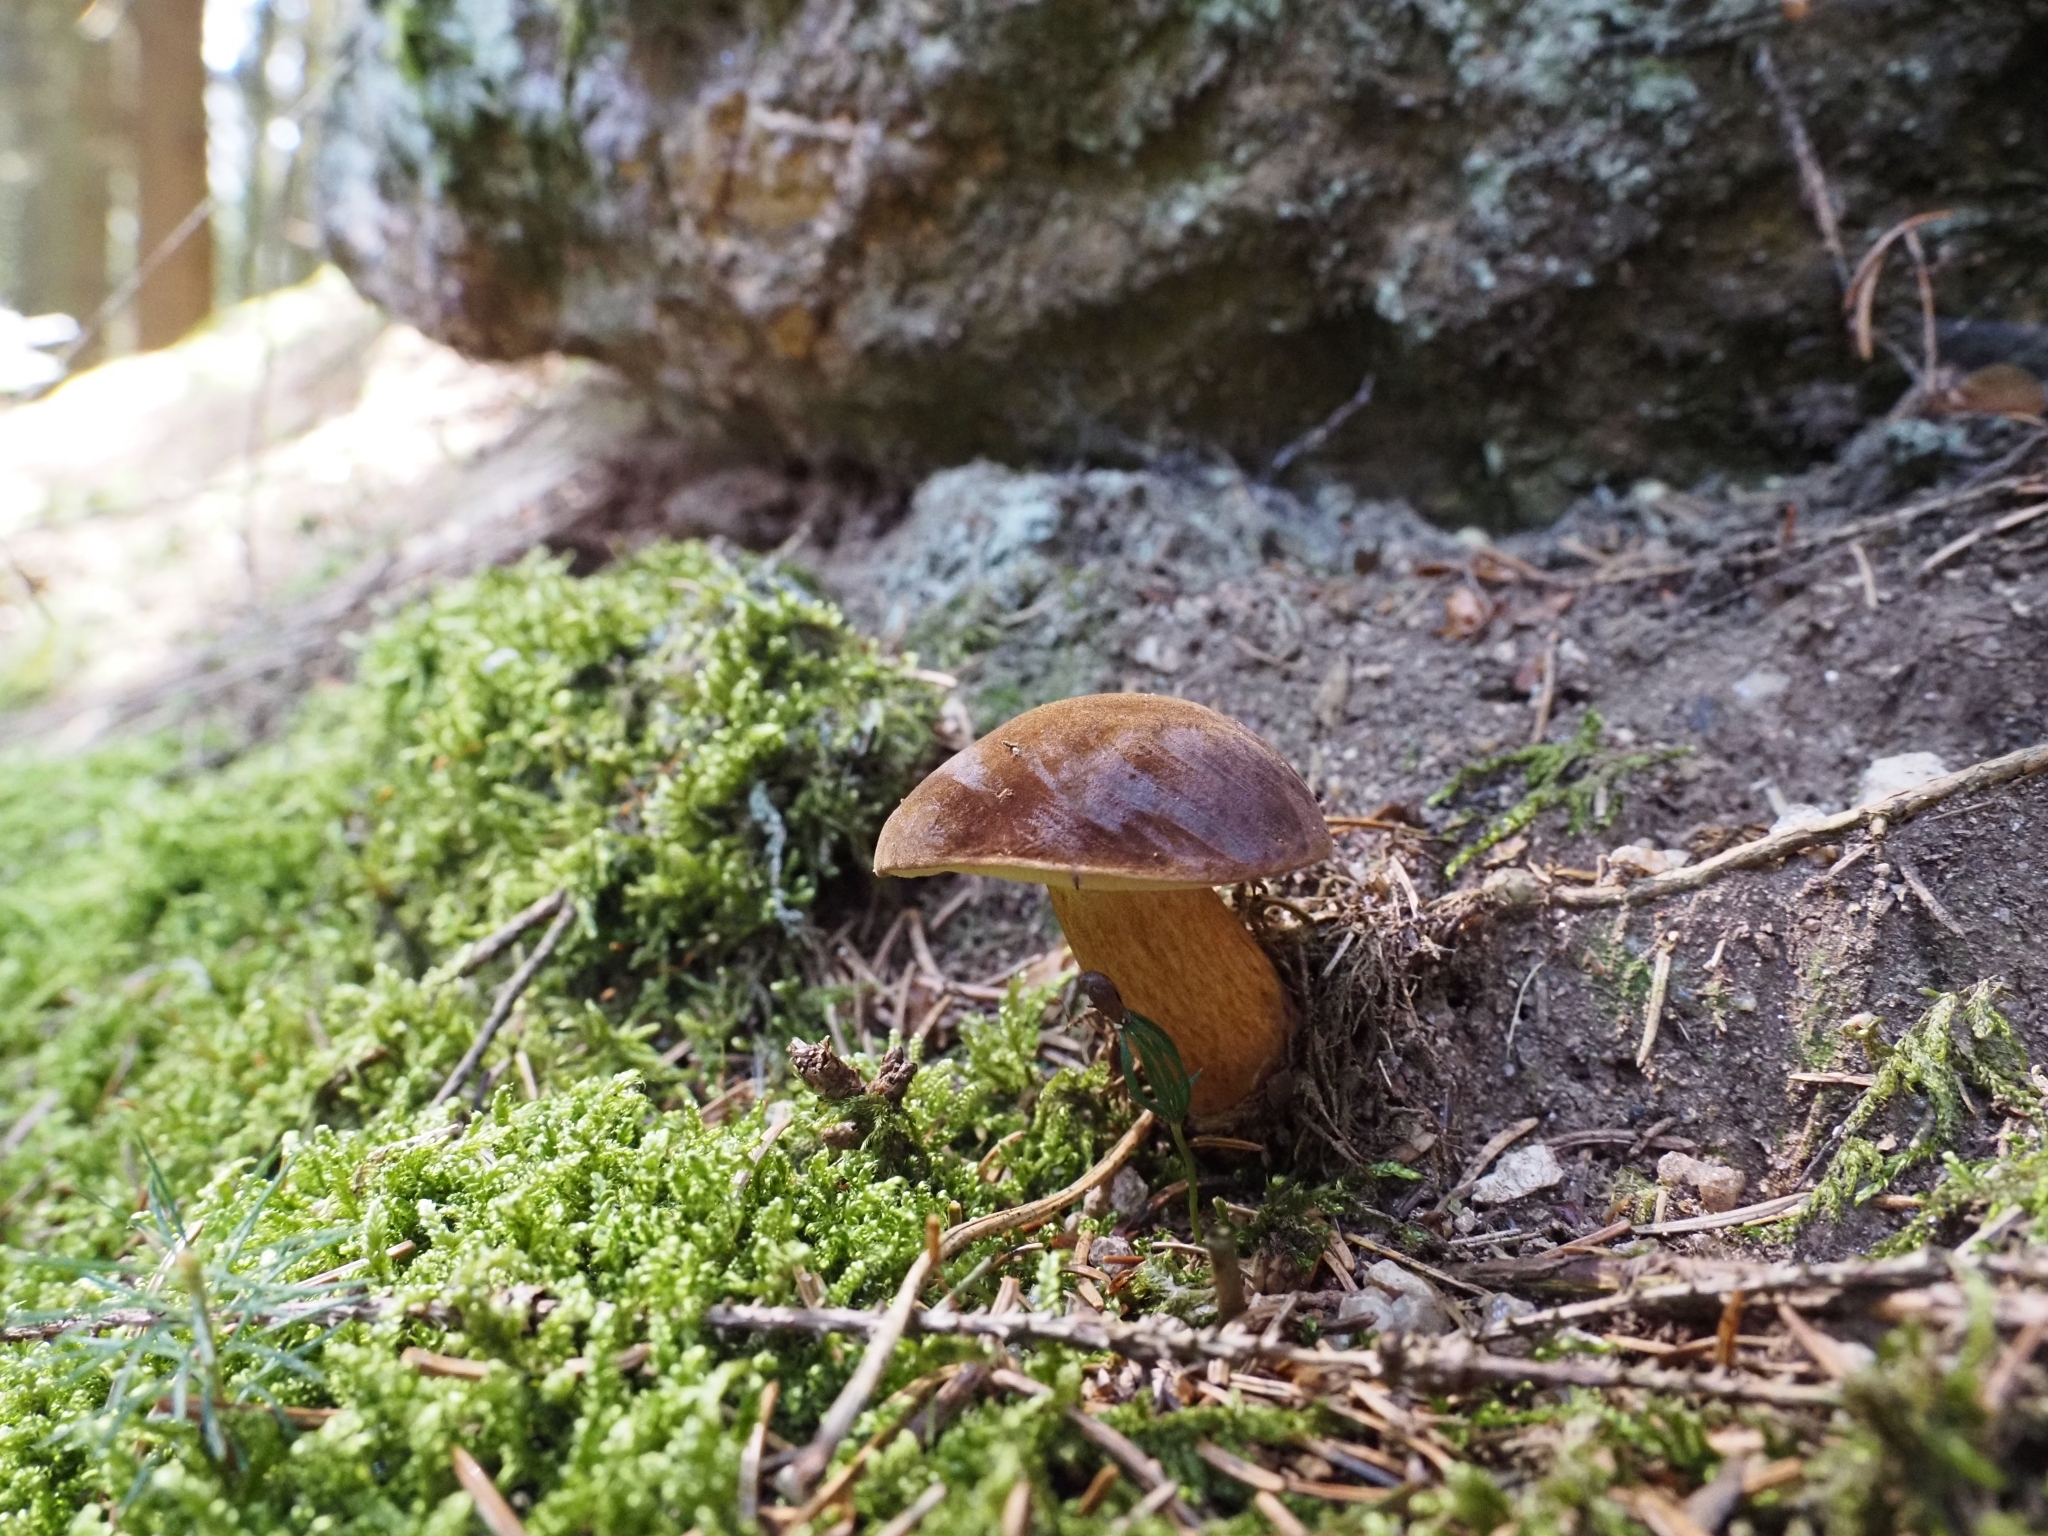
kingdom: Fungi
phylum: Basidiomycota
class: Agaricomycetes
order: Boletales
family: Boletaceae
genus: Imleria
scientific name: Imleria badia
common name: Bay bolete
